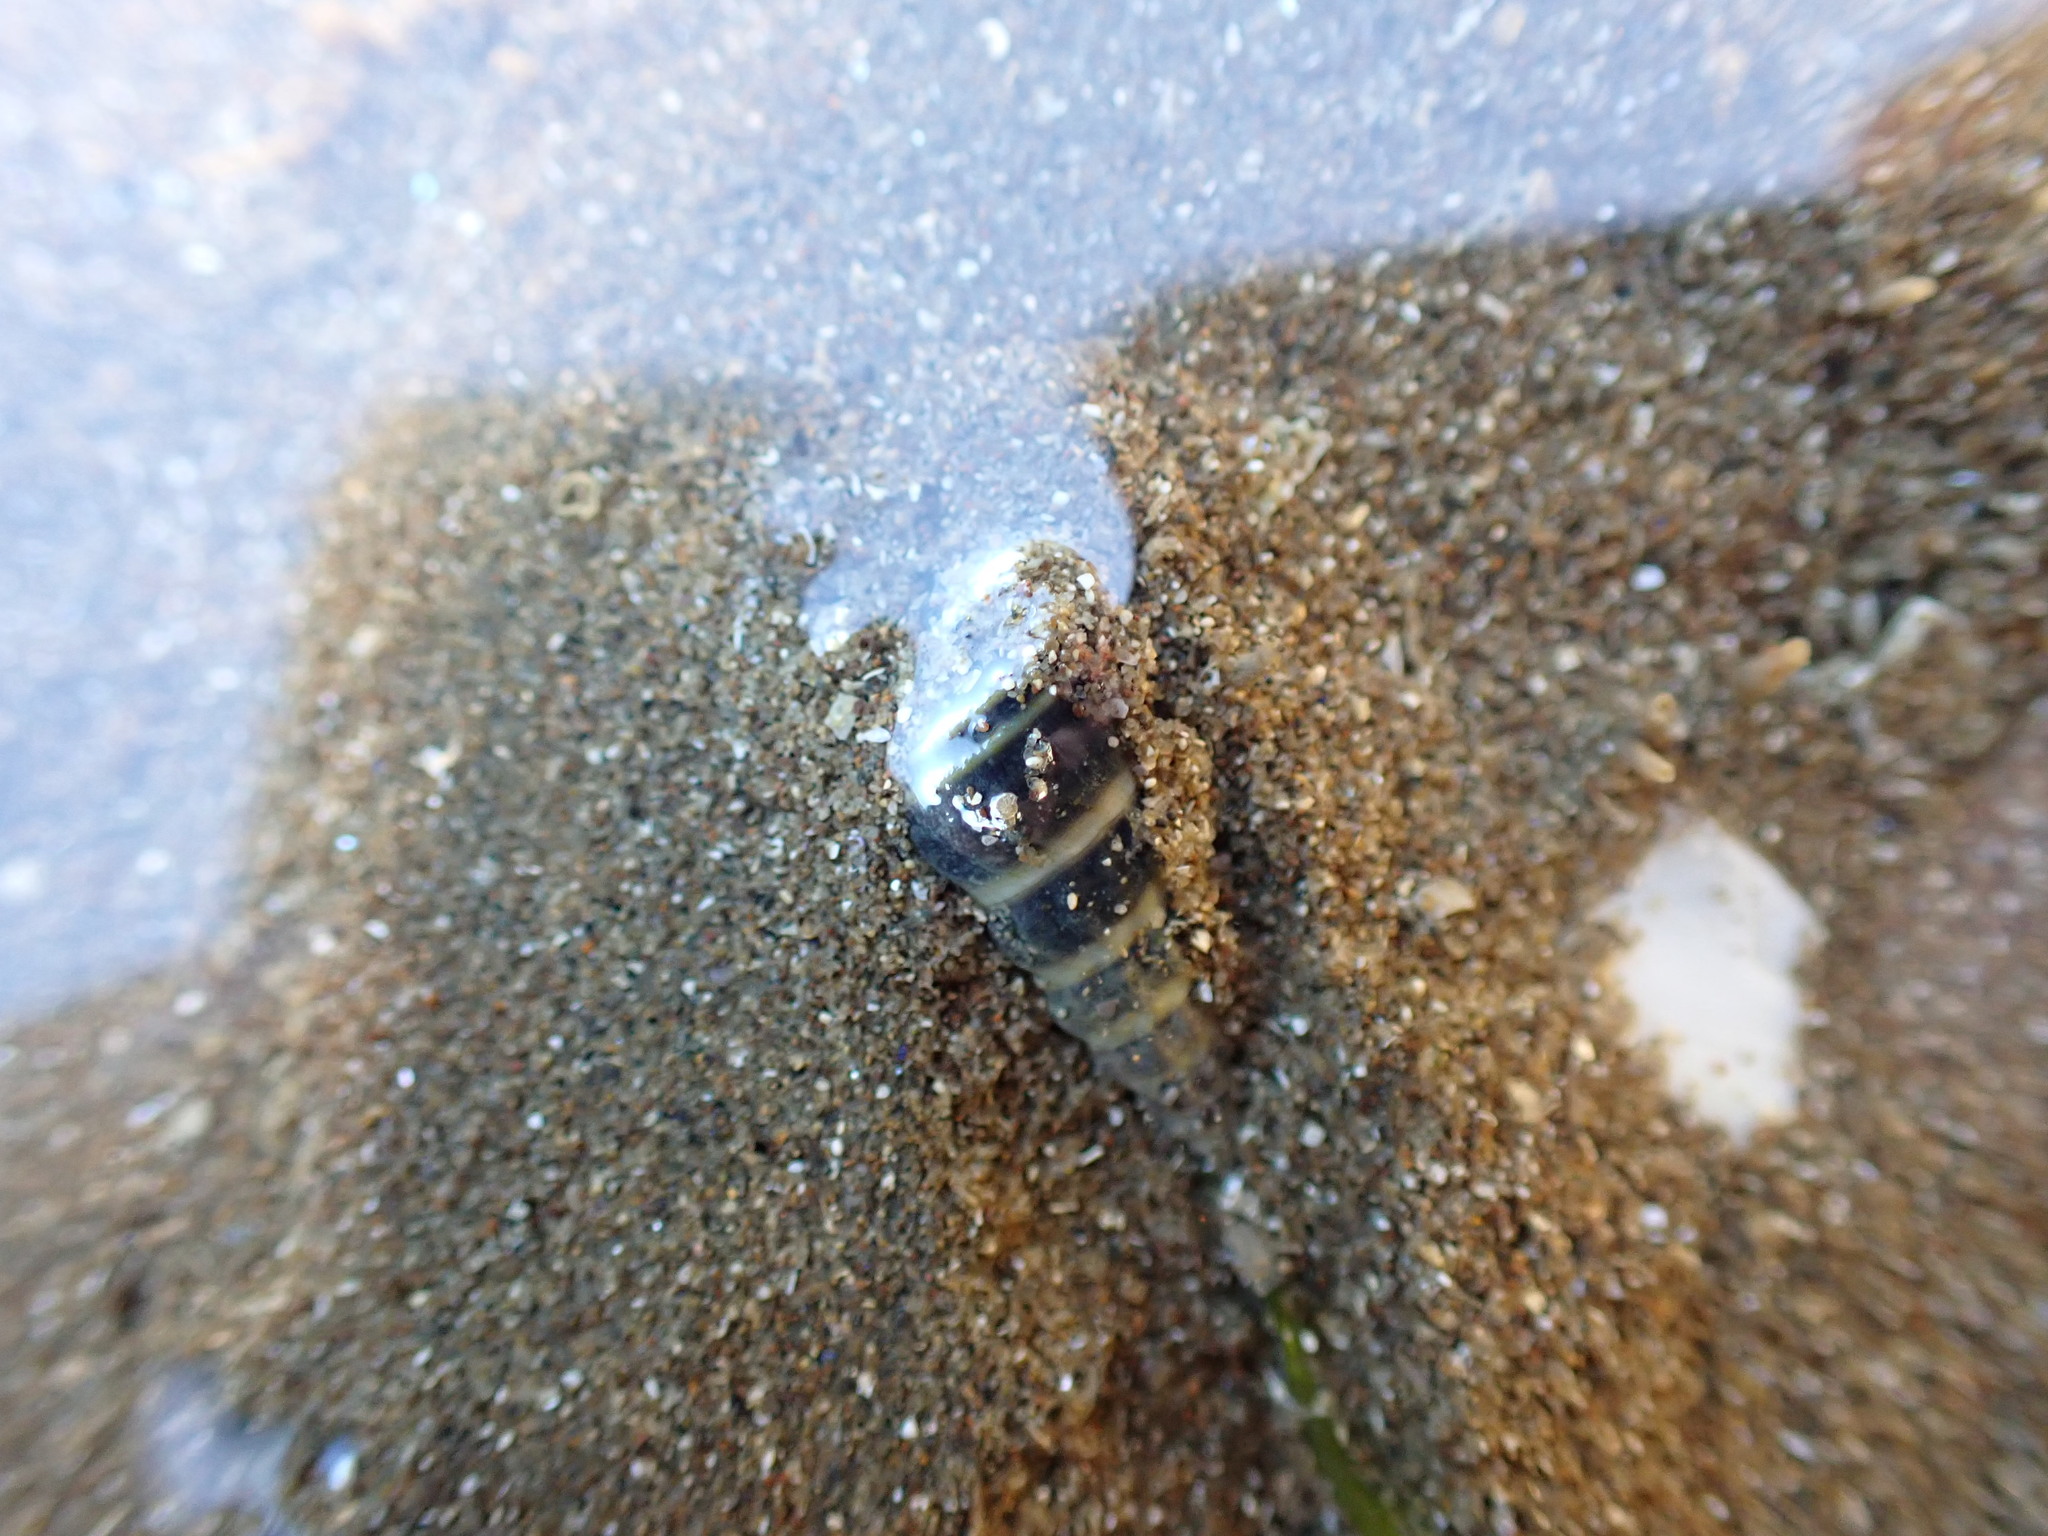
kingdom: Animalia
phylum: Mollusca
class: Gastropoda
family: Batillariidae
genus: Zeacumantus
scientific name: Zeacumantus lutulentus
